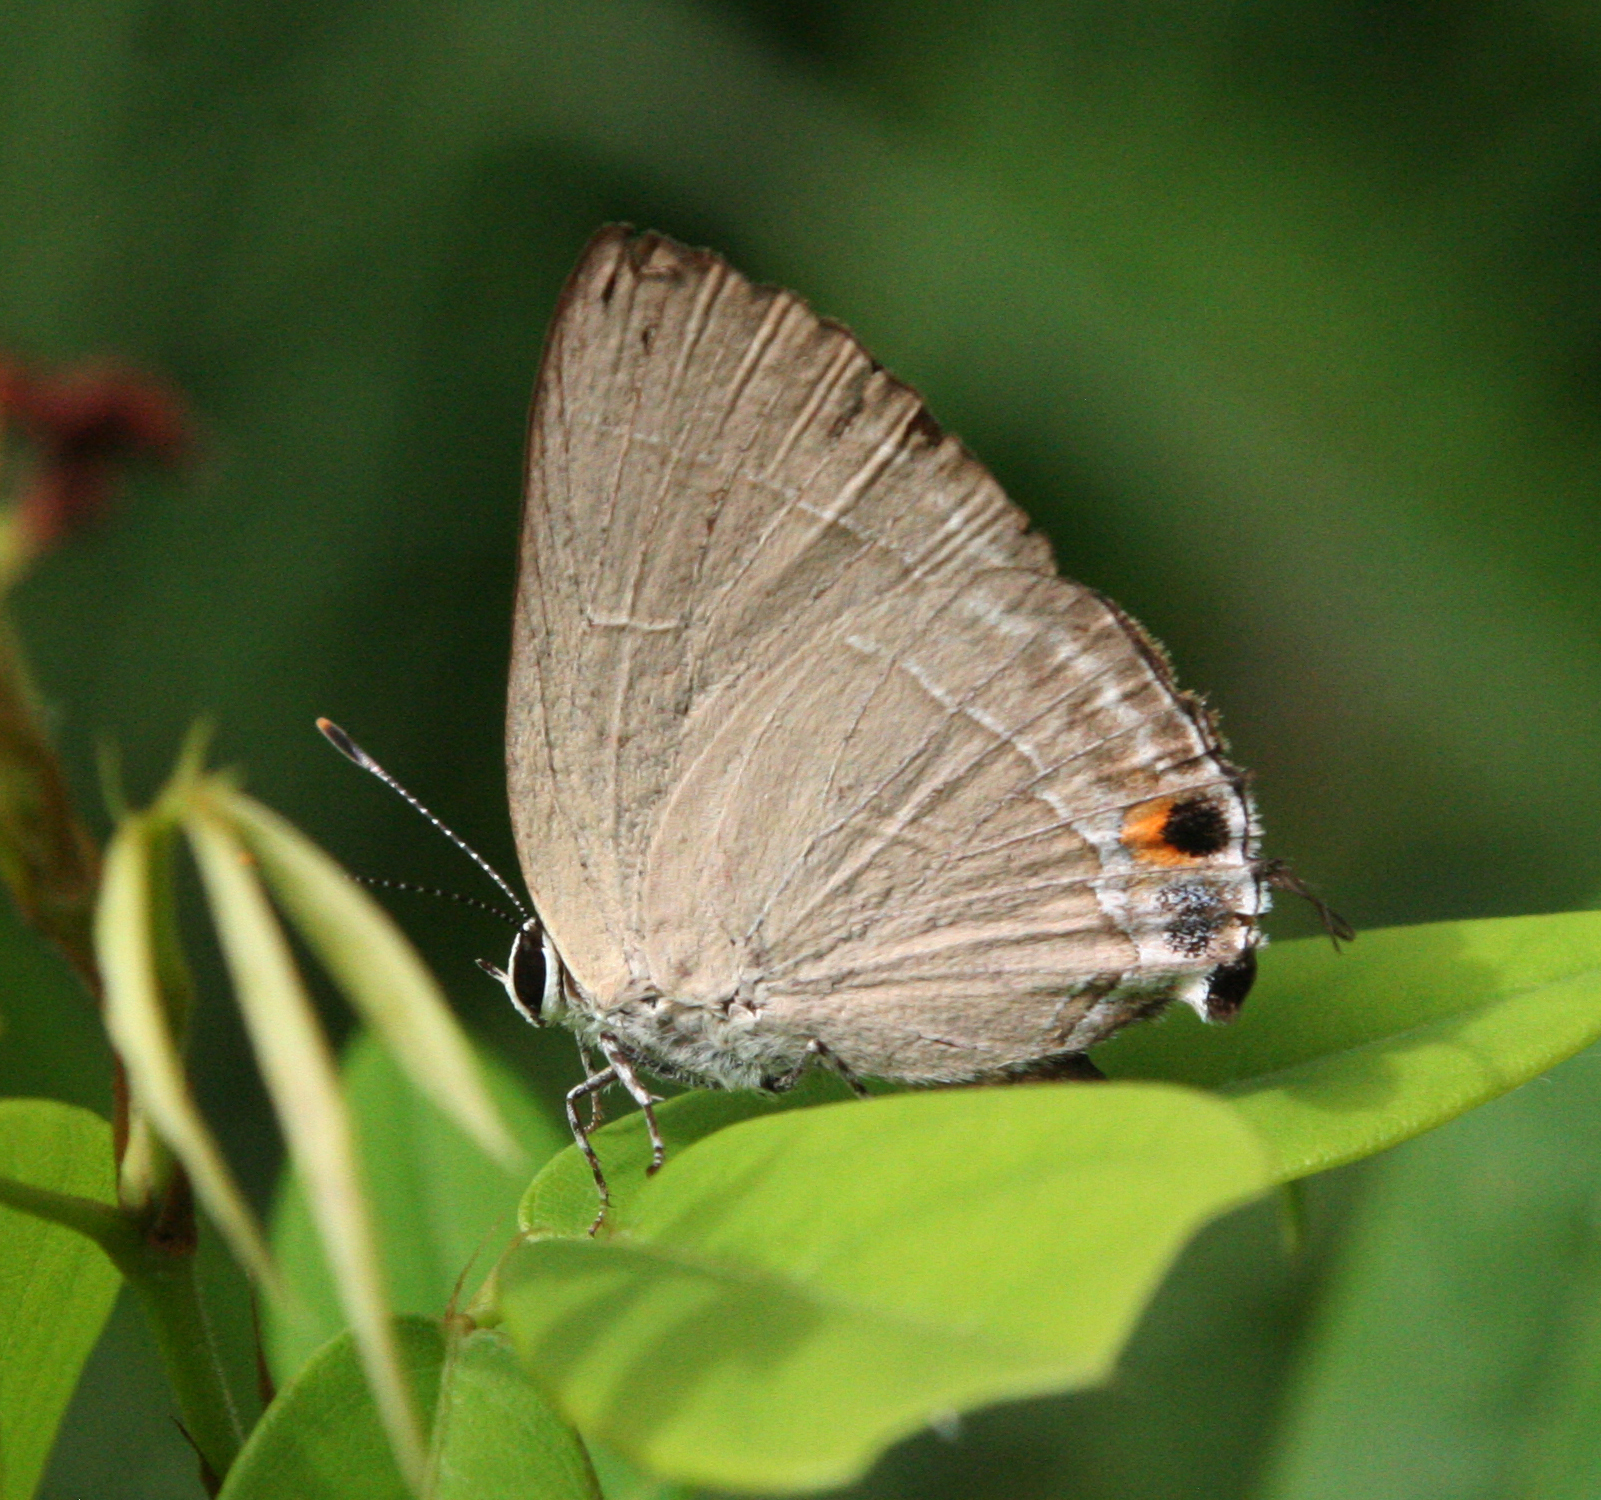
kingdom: Animalia
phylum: Arthropoda
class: Insecta
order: Lepidoptera
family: Lycaenidae
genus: Rapala
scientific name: Rapala iarbas
